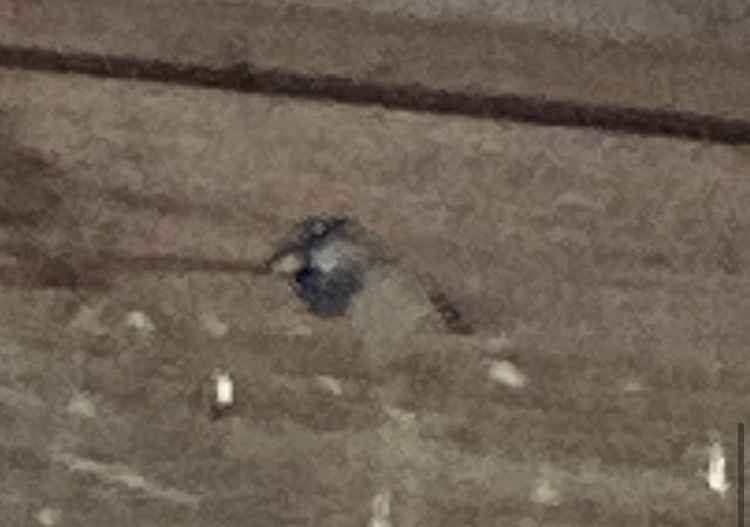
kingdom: Animalia
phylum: Chordata
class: Aves
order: Passeriformes
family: Passeridae
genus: Passer
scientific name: Passer domesticus
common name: House sparrow
